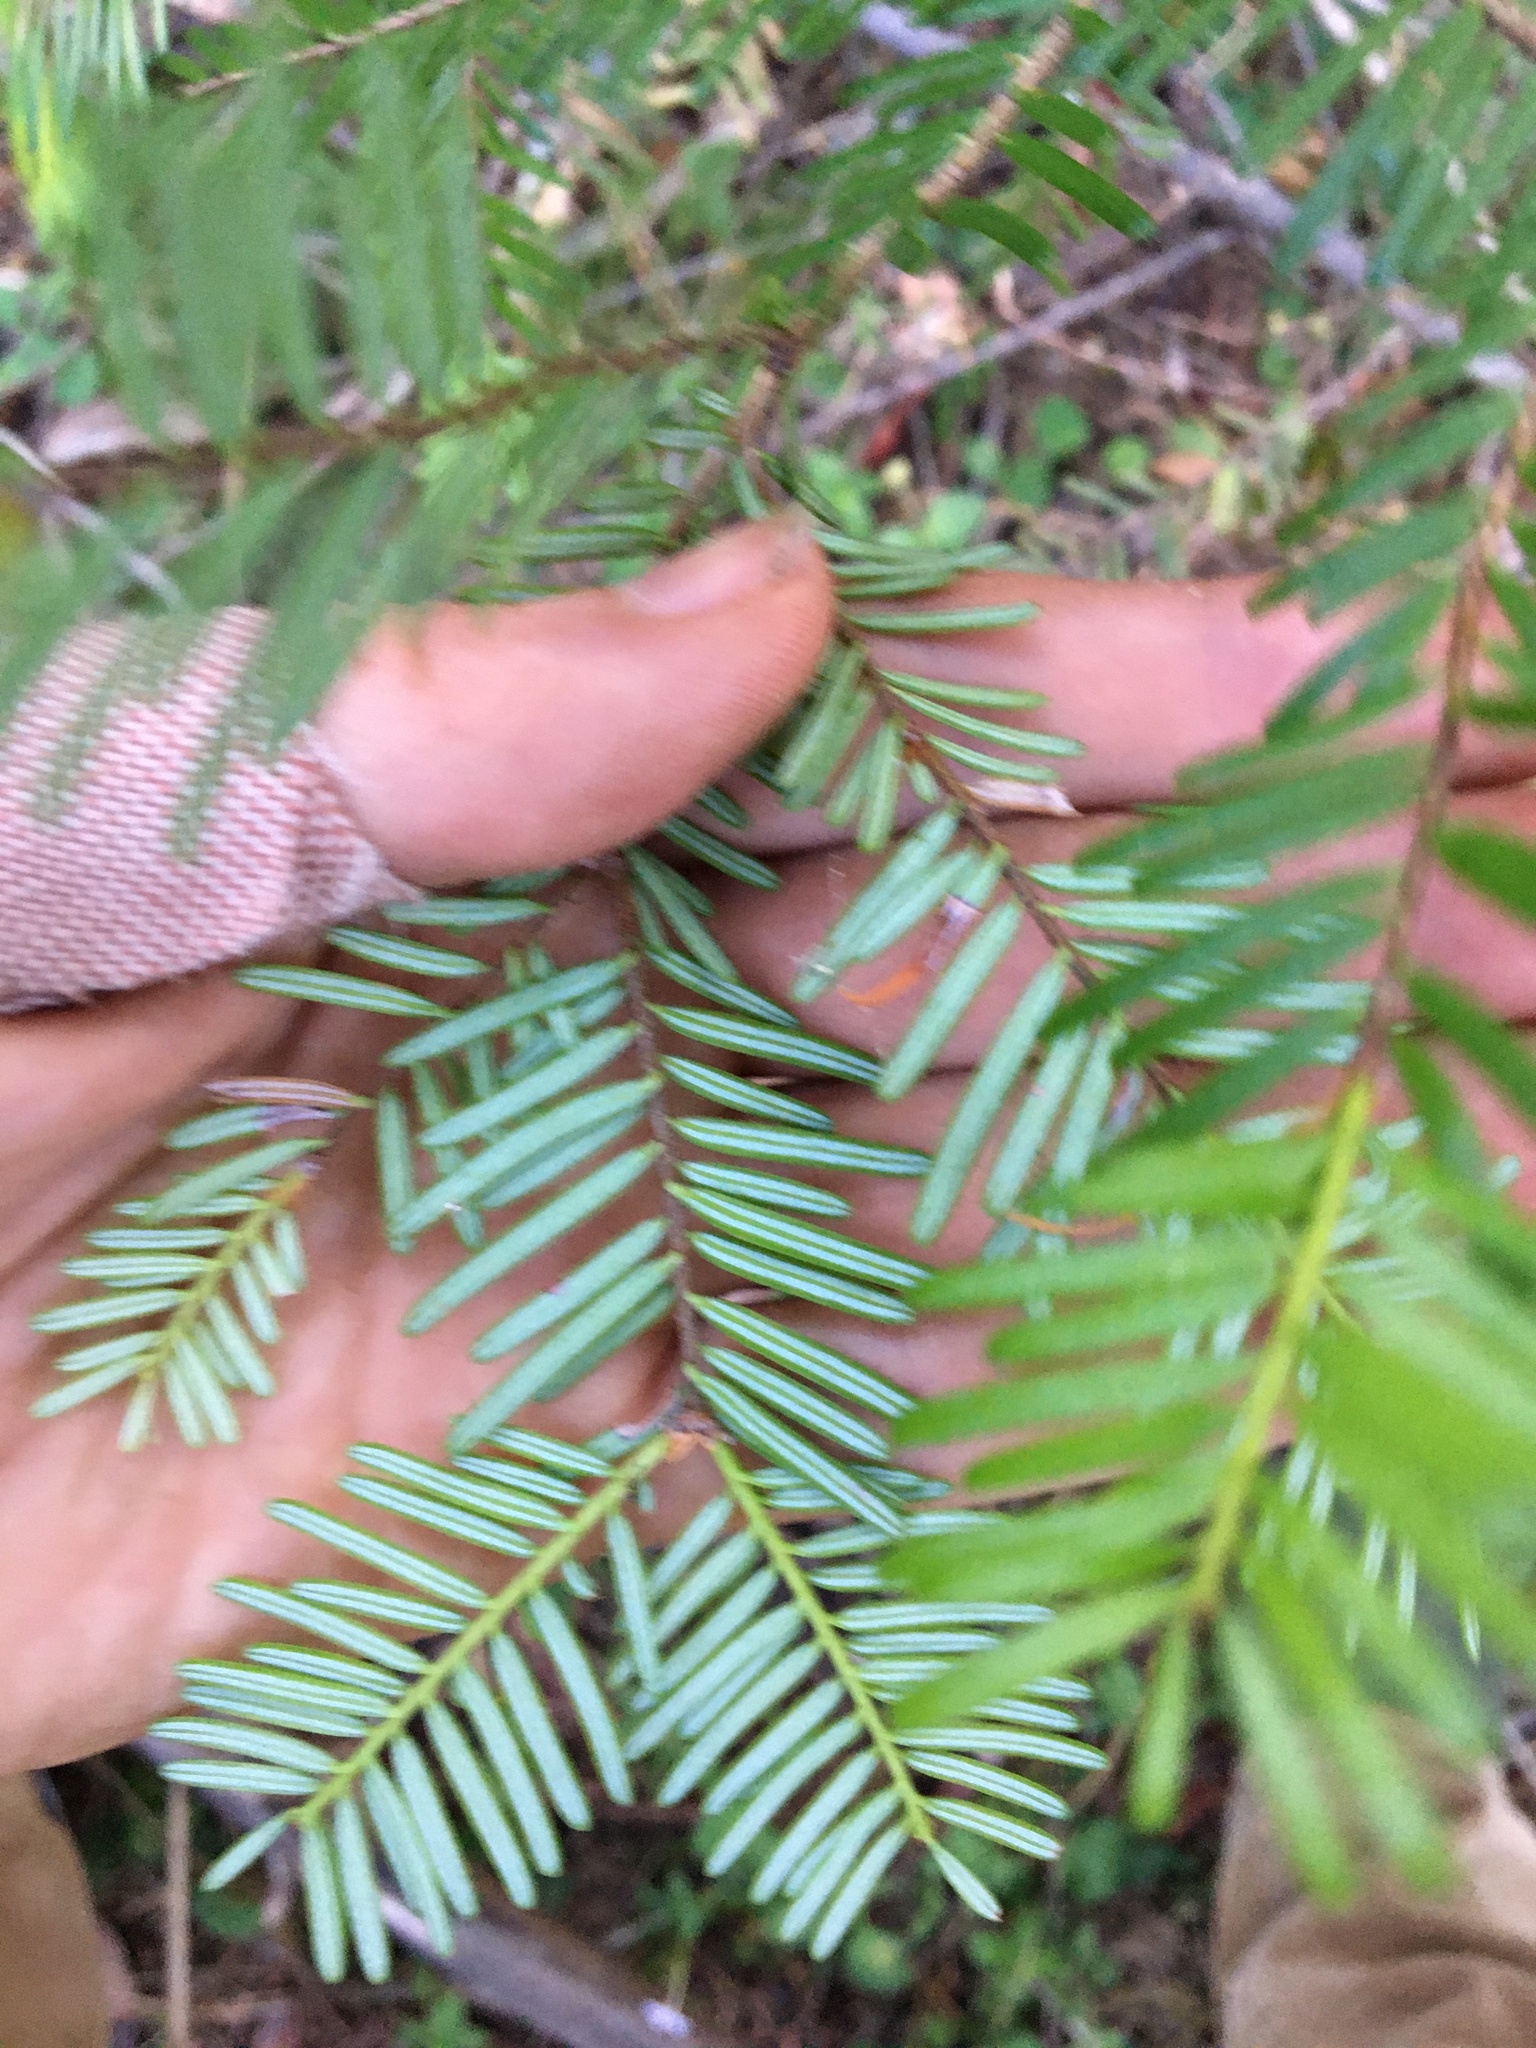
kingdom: Plantae
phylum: Tracheophyta
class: Pinopsida
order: Pinales
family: Pinaceae
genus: Abies
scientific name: Abies grandis
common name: Giant fir
